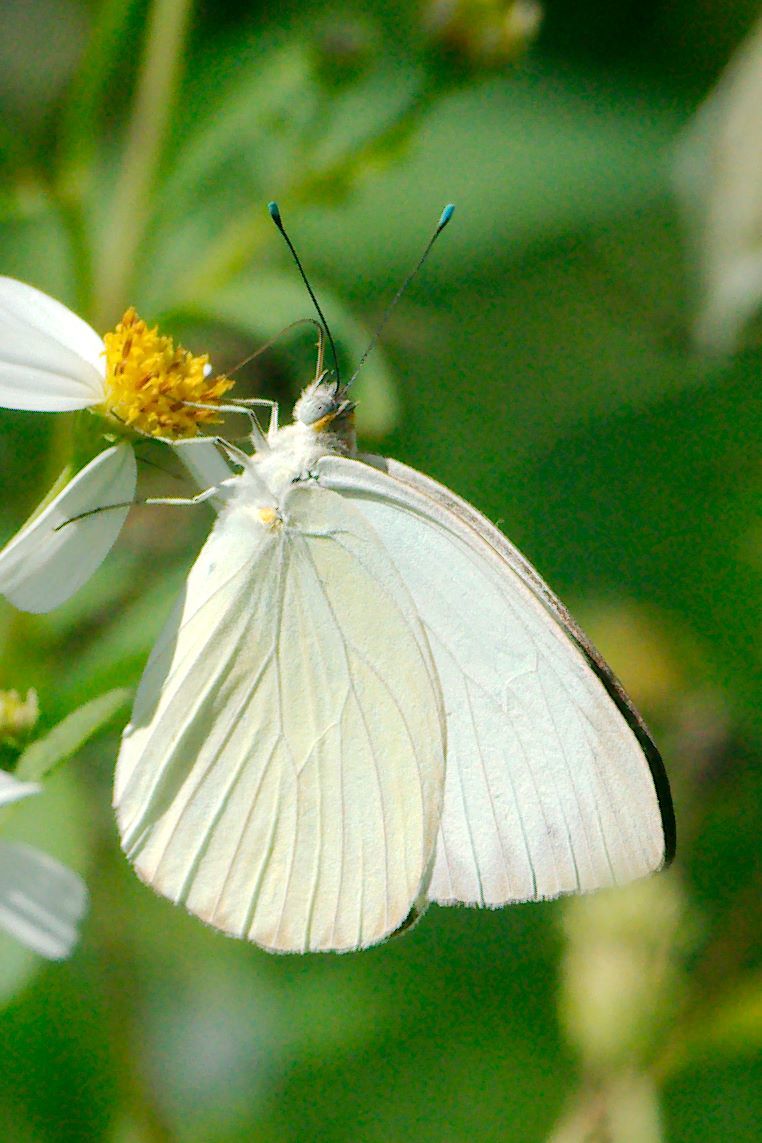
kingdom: Animalia
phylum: Arthropoda
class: Insecta
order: Lepidoptera
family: Pieridae
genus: Ascia
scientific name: Ascia monuste
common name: Great southern white
